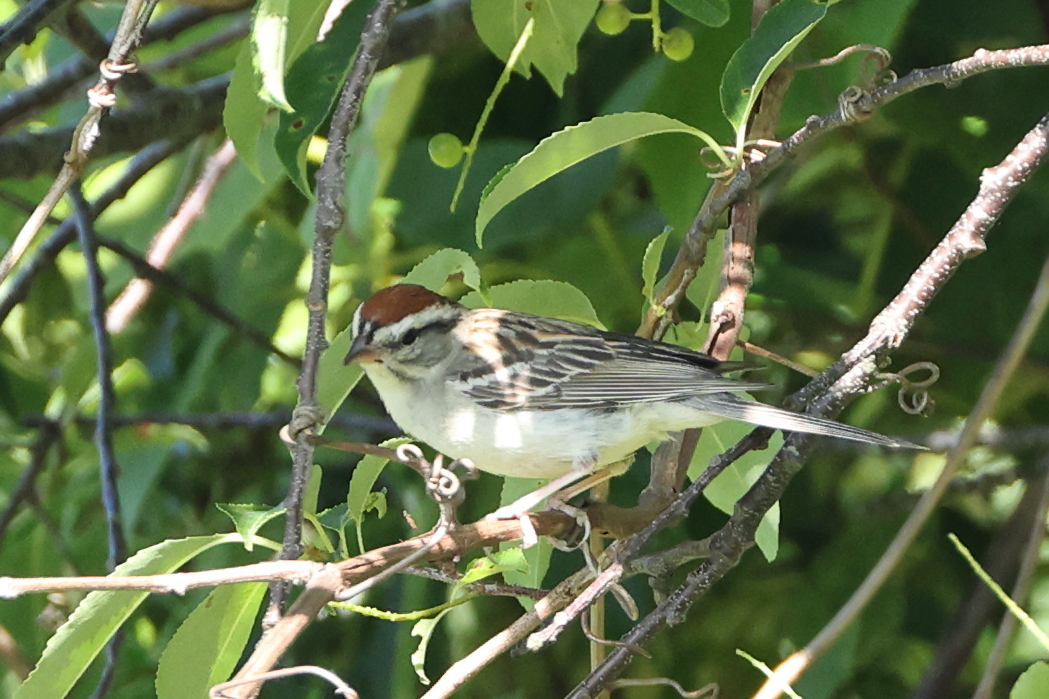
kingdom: Animalia
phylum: Chordata
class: Aves
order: Passeriformes
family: Passerellidae
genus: Spizella
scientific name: Spizella passerina
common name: Chipping sparrow
